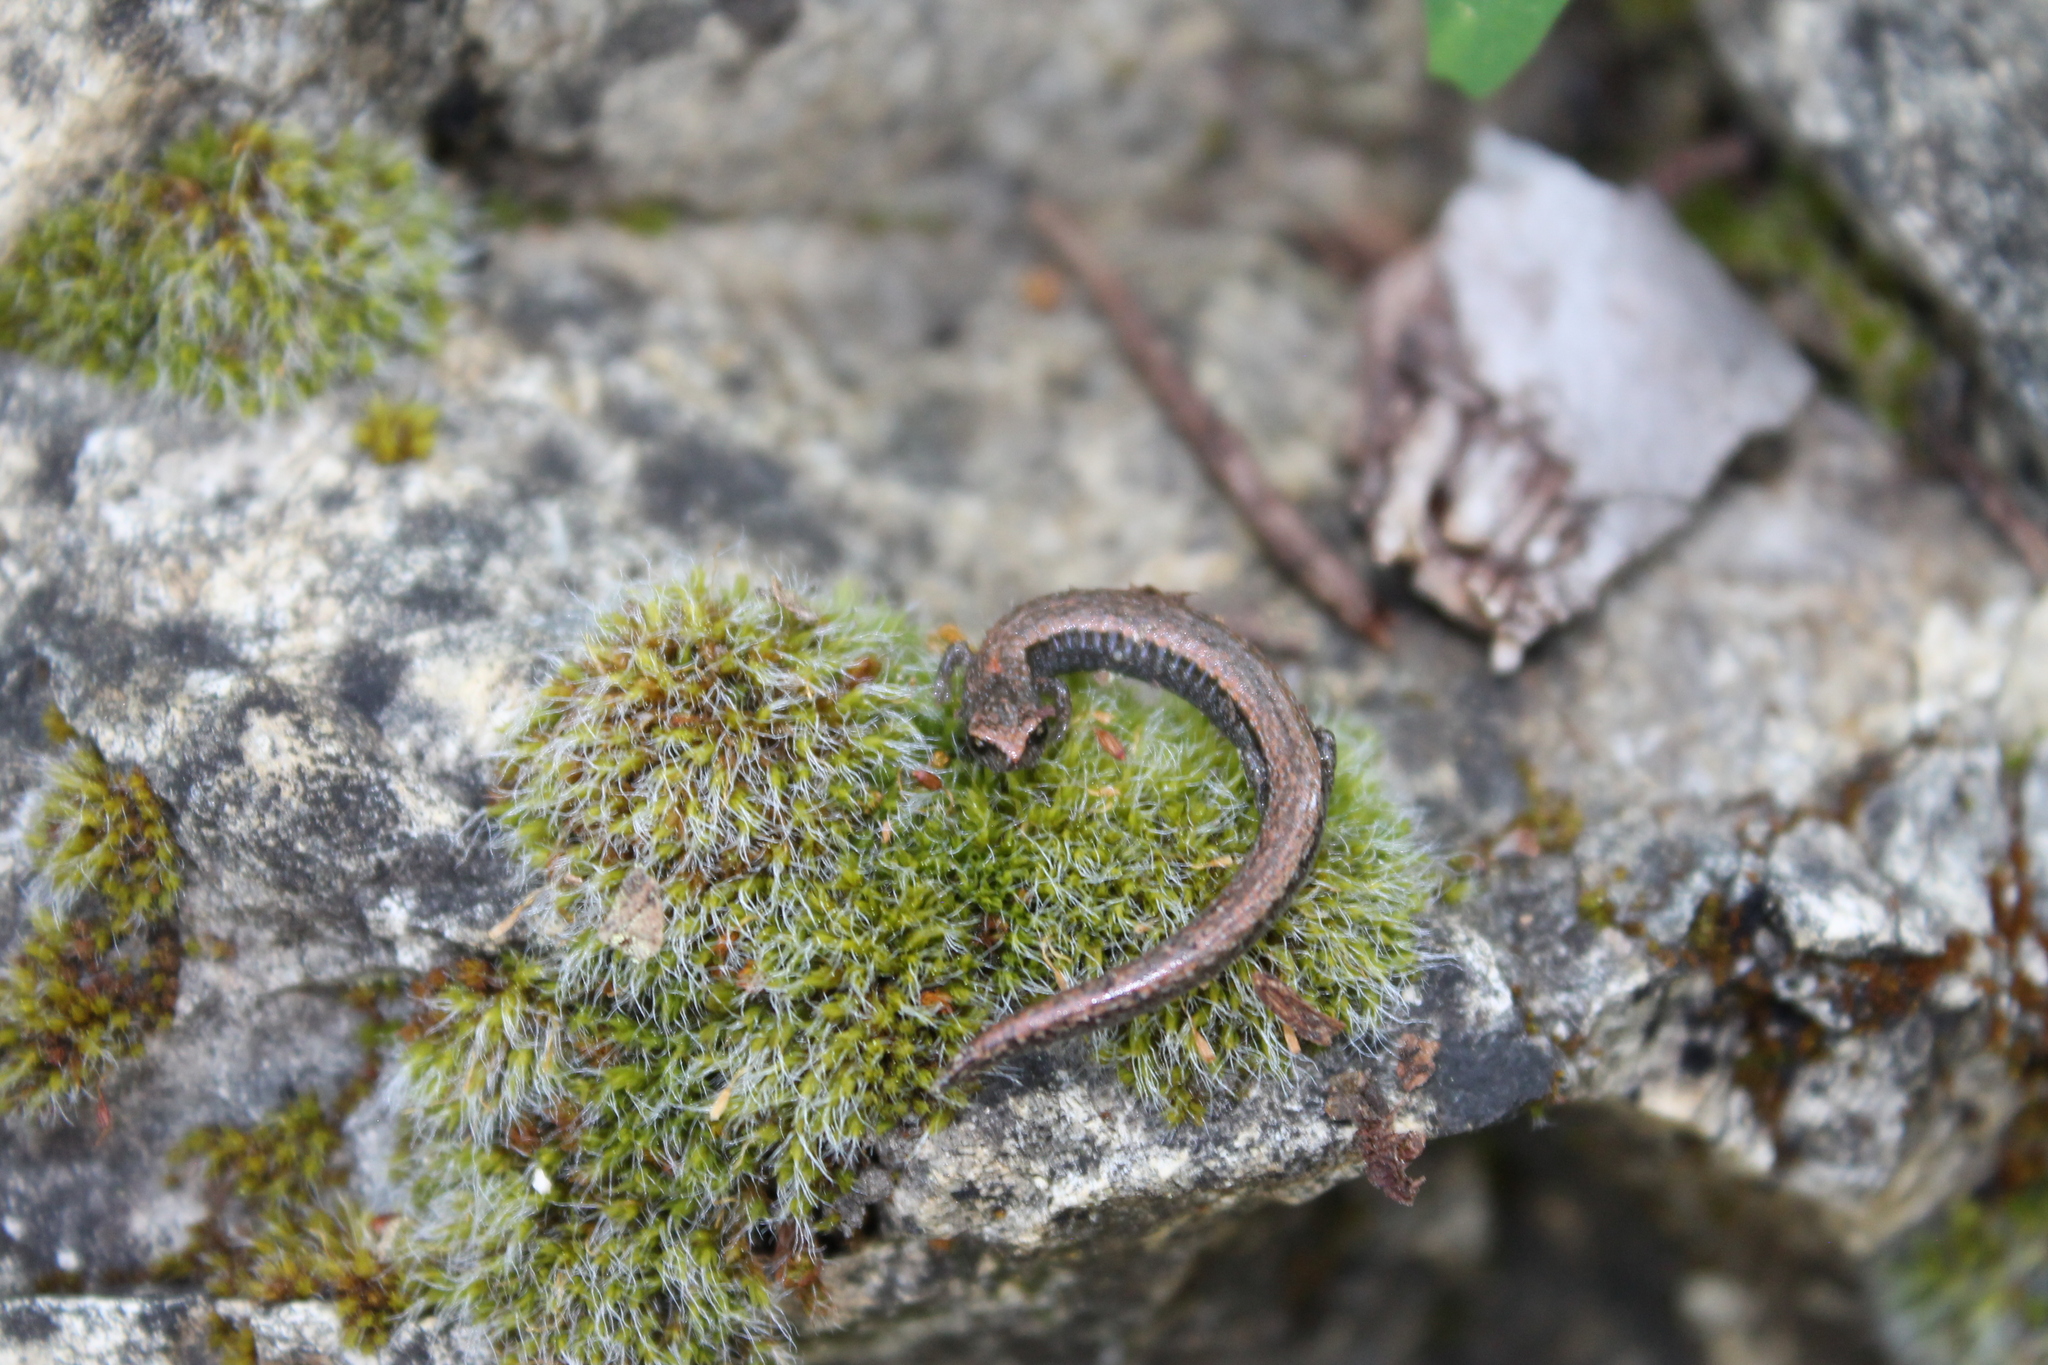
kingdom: Animalia
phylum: Chordata
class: Amphibia
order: Caudata
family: Plethodontidae
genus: Batrachoseps
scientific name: Batrachoseps gavilanensis
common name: Gabilan mountains slender salamander
